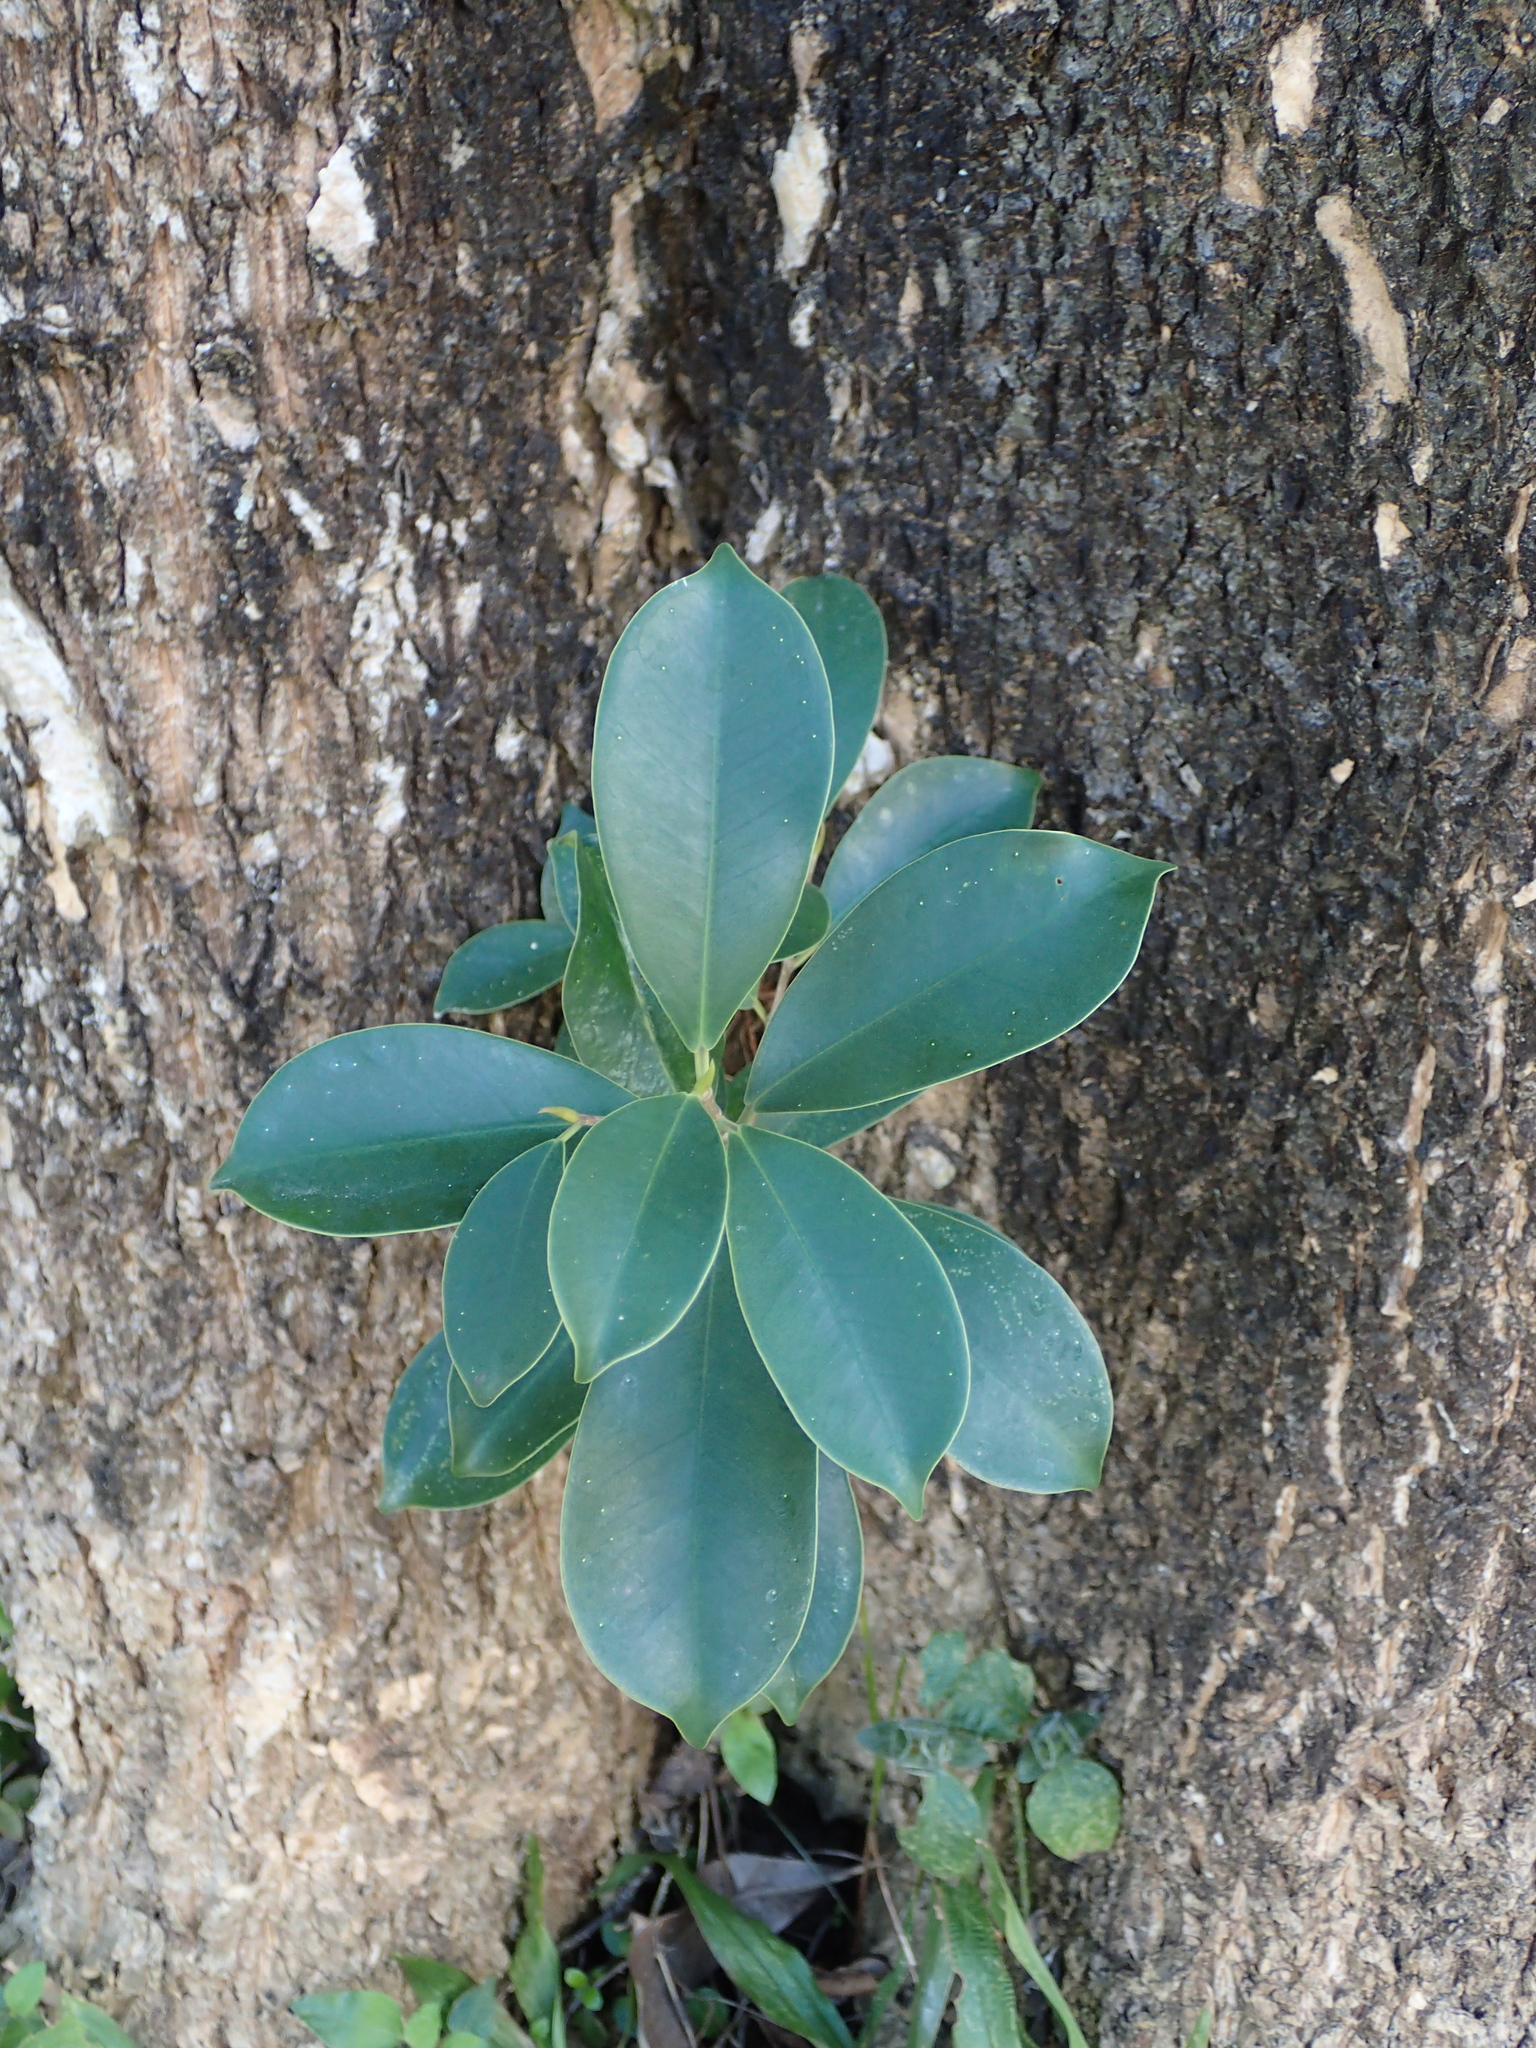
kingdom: Plantae
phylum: Tracheophyta
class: Magnoliopsida
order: Rosales
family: Moraceae
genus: Ficus
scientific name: Ficus microcarpa
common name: Chinese banyan
